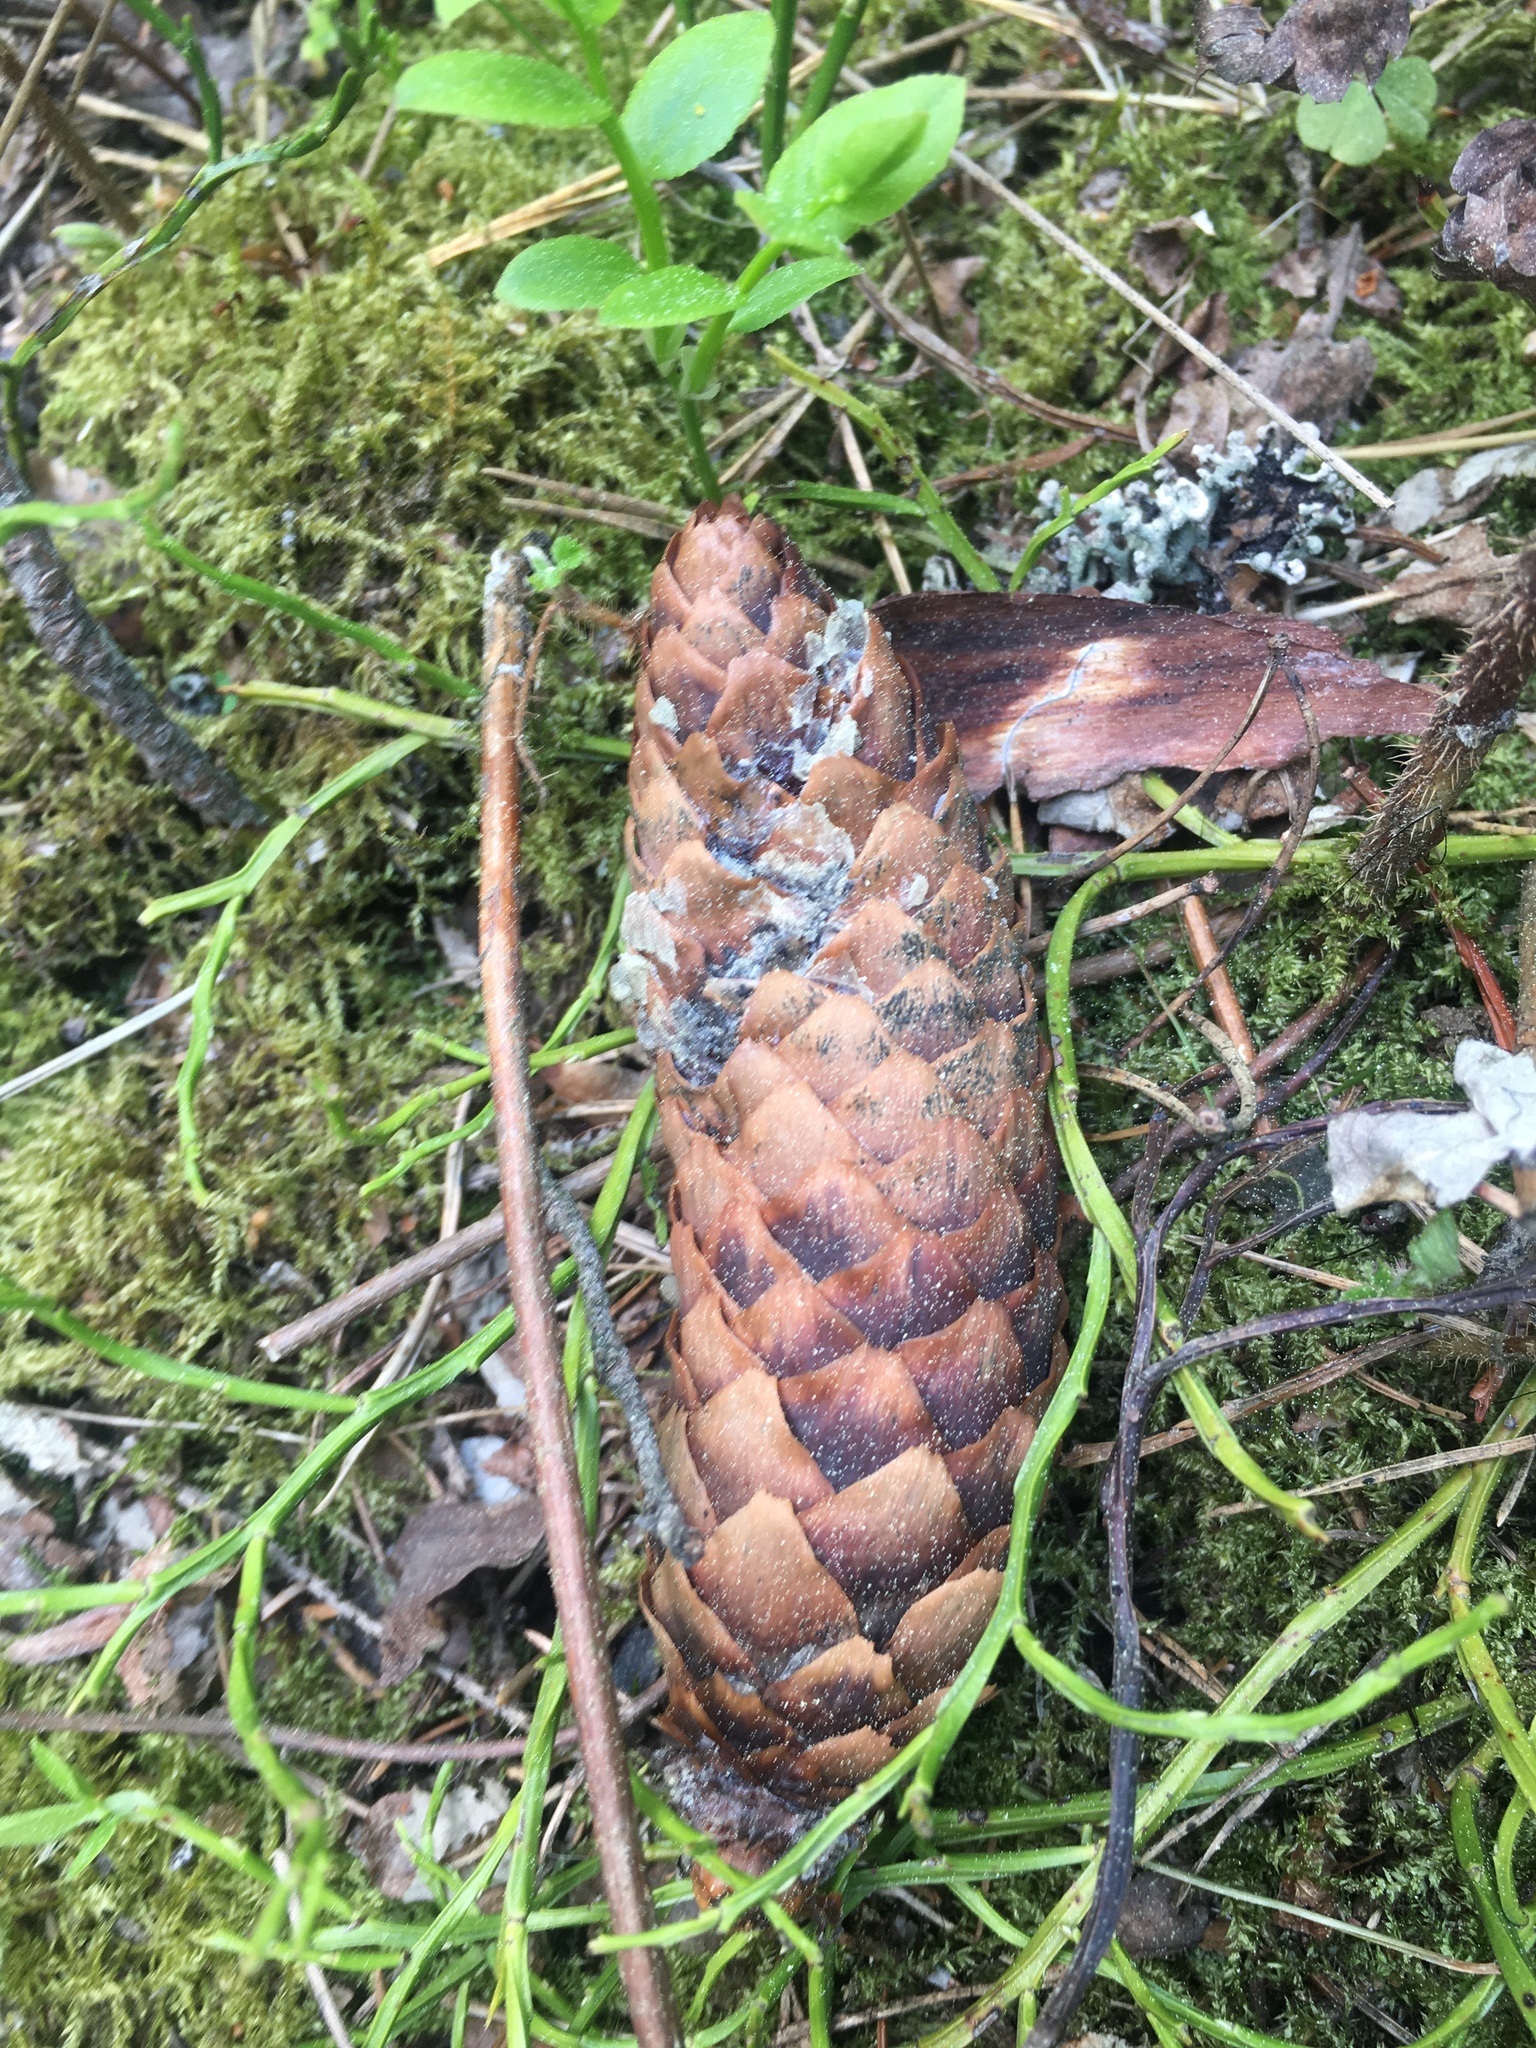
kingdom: Plantae
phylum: Tracheophyta
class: Pinopsida
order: Pinales
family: Pinaceae
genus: Picea
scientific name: Picea abies
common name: Norway spruce
